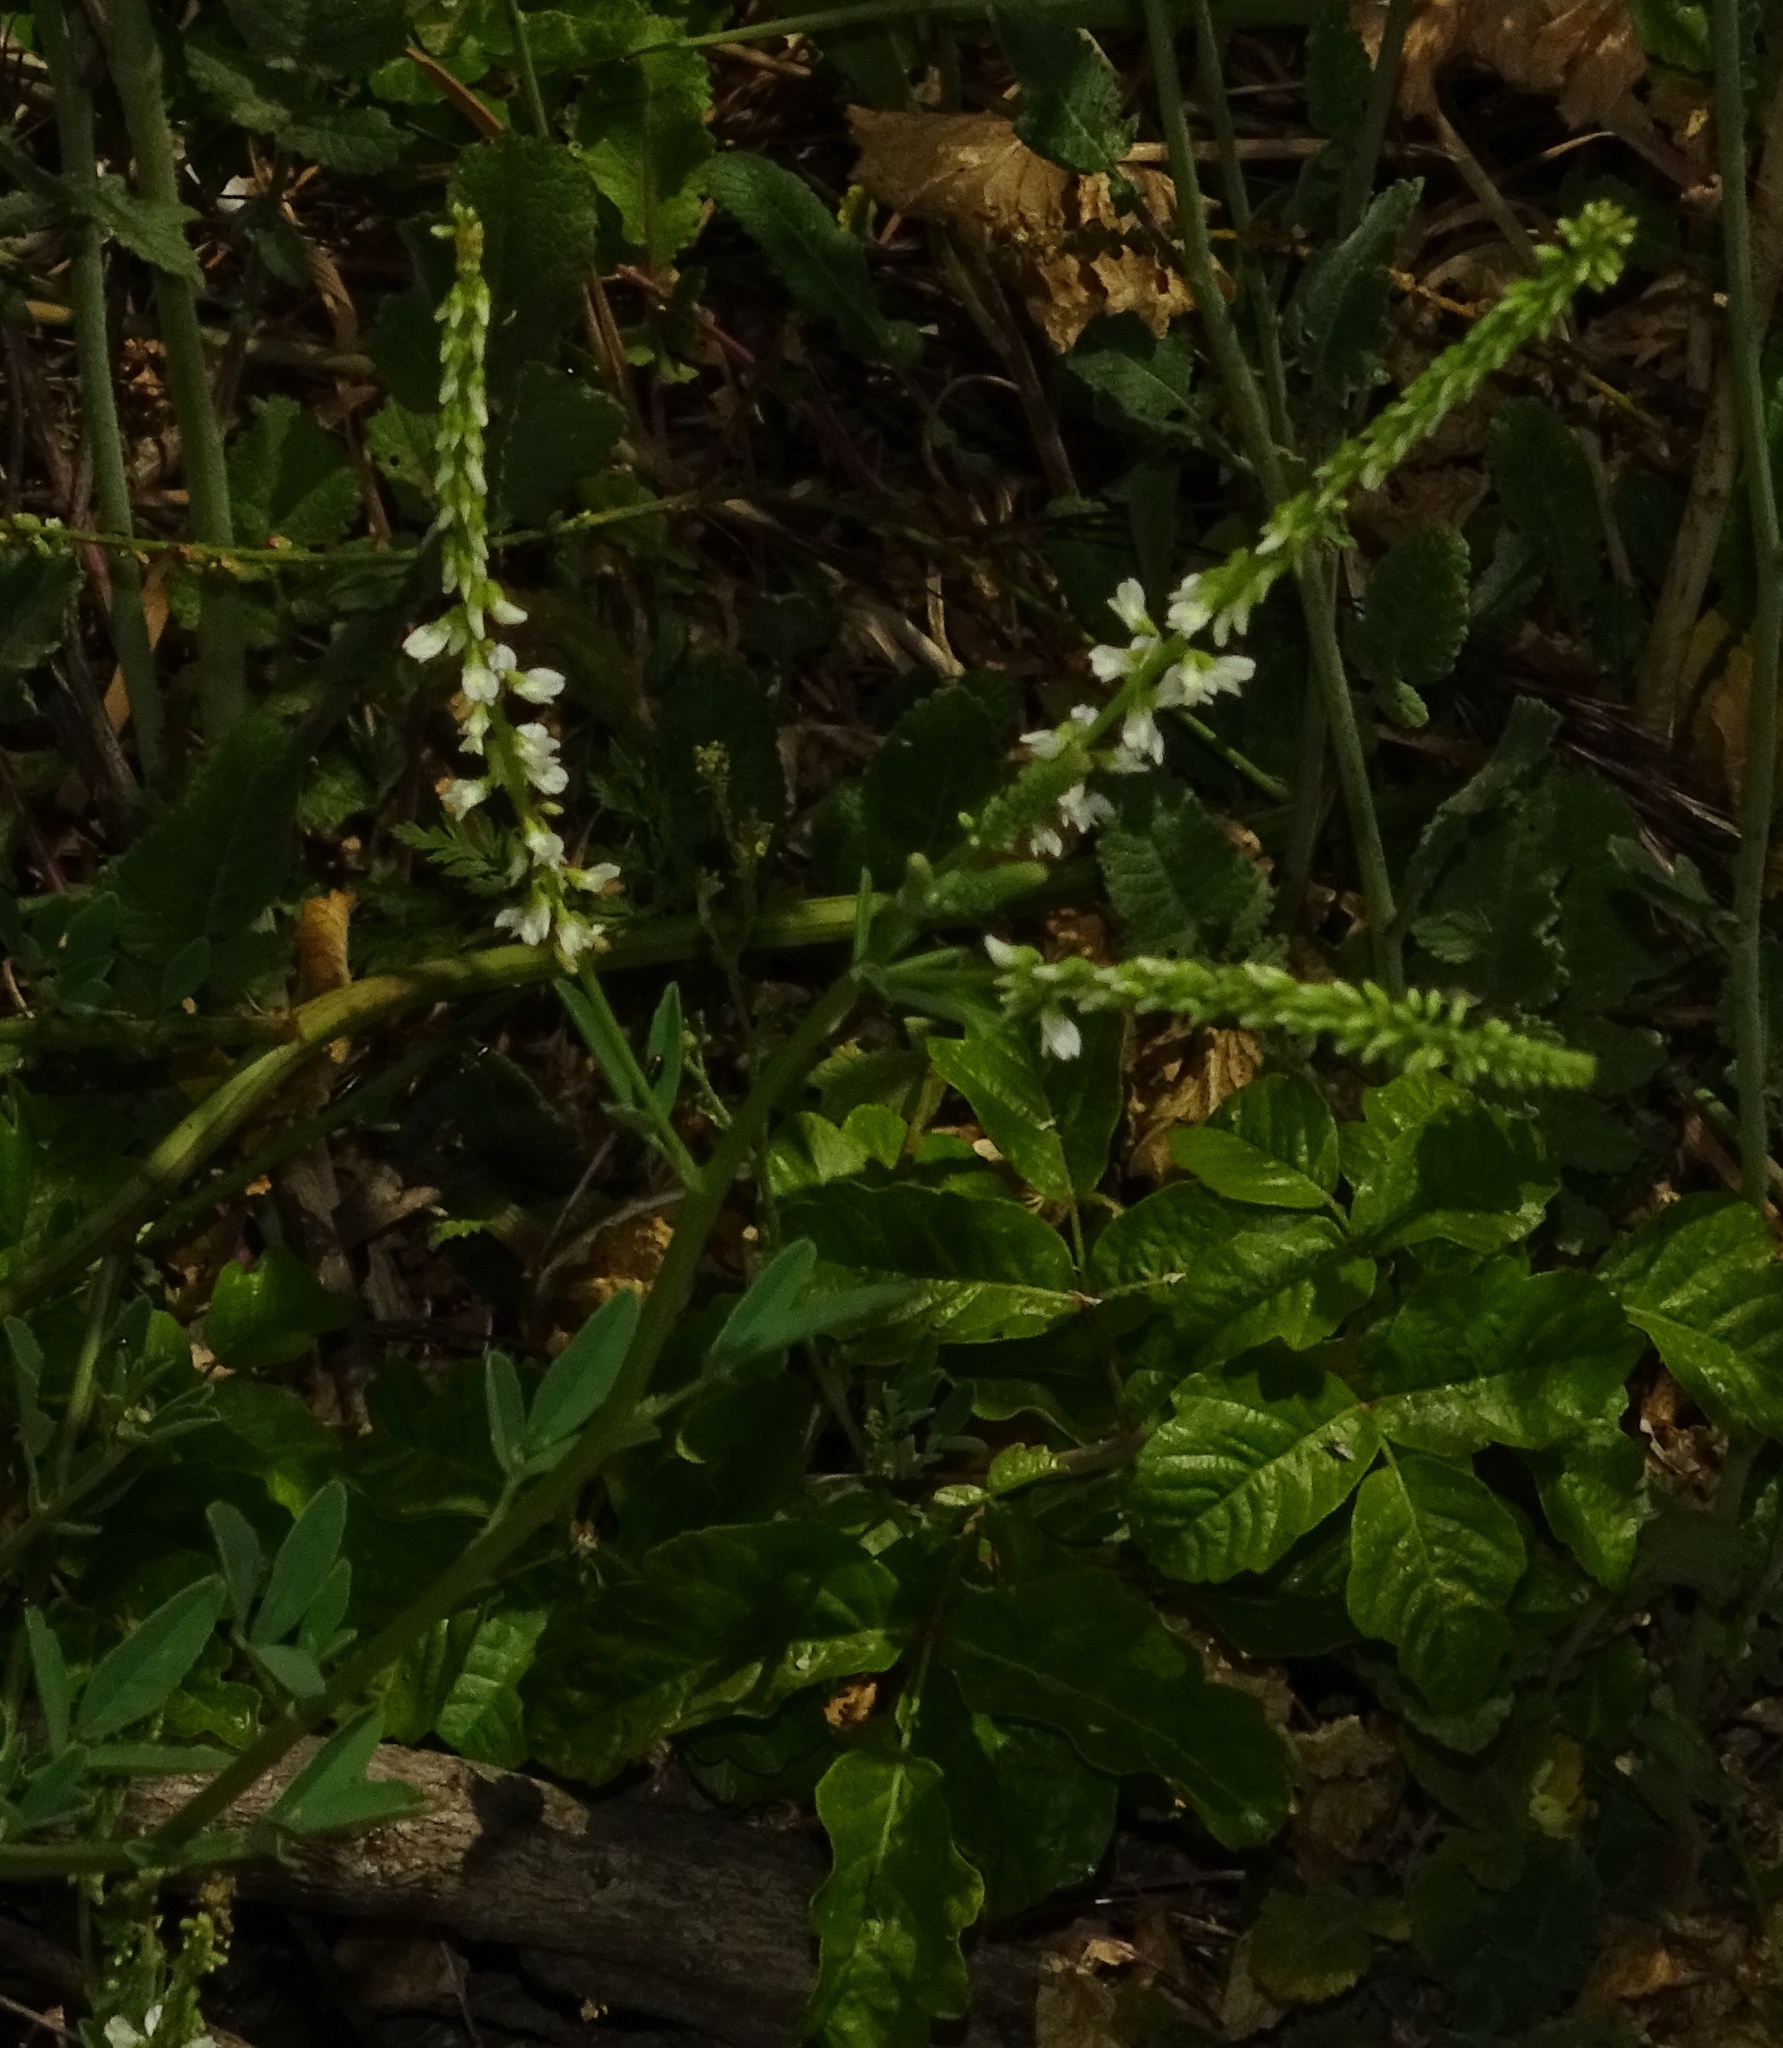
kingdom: Plantae
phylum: Tracheophyta
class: Magnoliopsida
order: Fabales
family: Fabaceae
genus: Melilotus
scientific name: Melilotus albus
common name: White melilot
